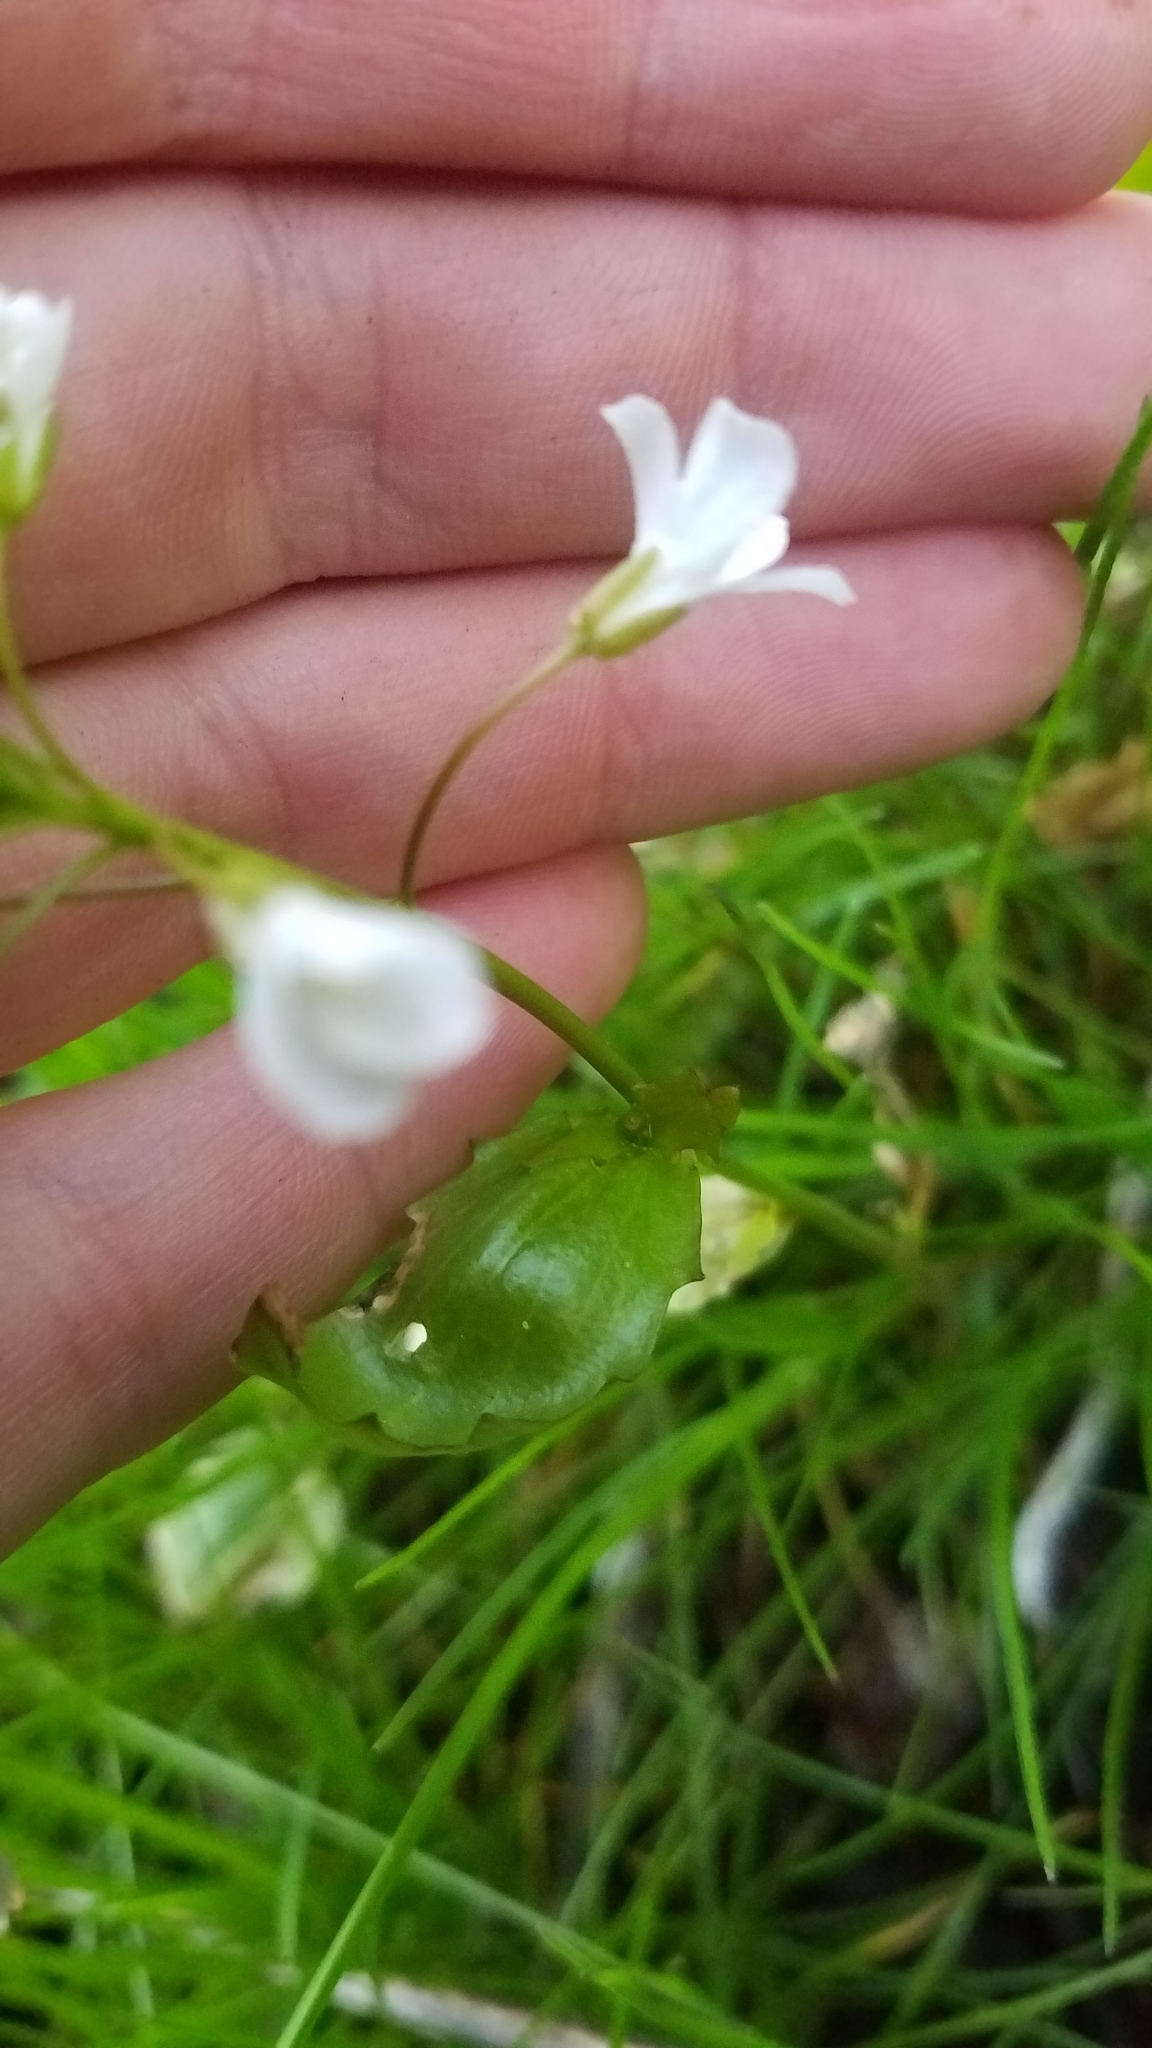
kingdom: Plantae
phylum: Tracheophyta
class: Magnoliopsida
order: Brassicales
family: Brassicaceae
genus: Cardamine
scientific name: Cardamine bulbosa
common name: Spring cress
